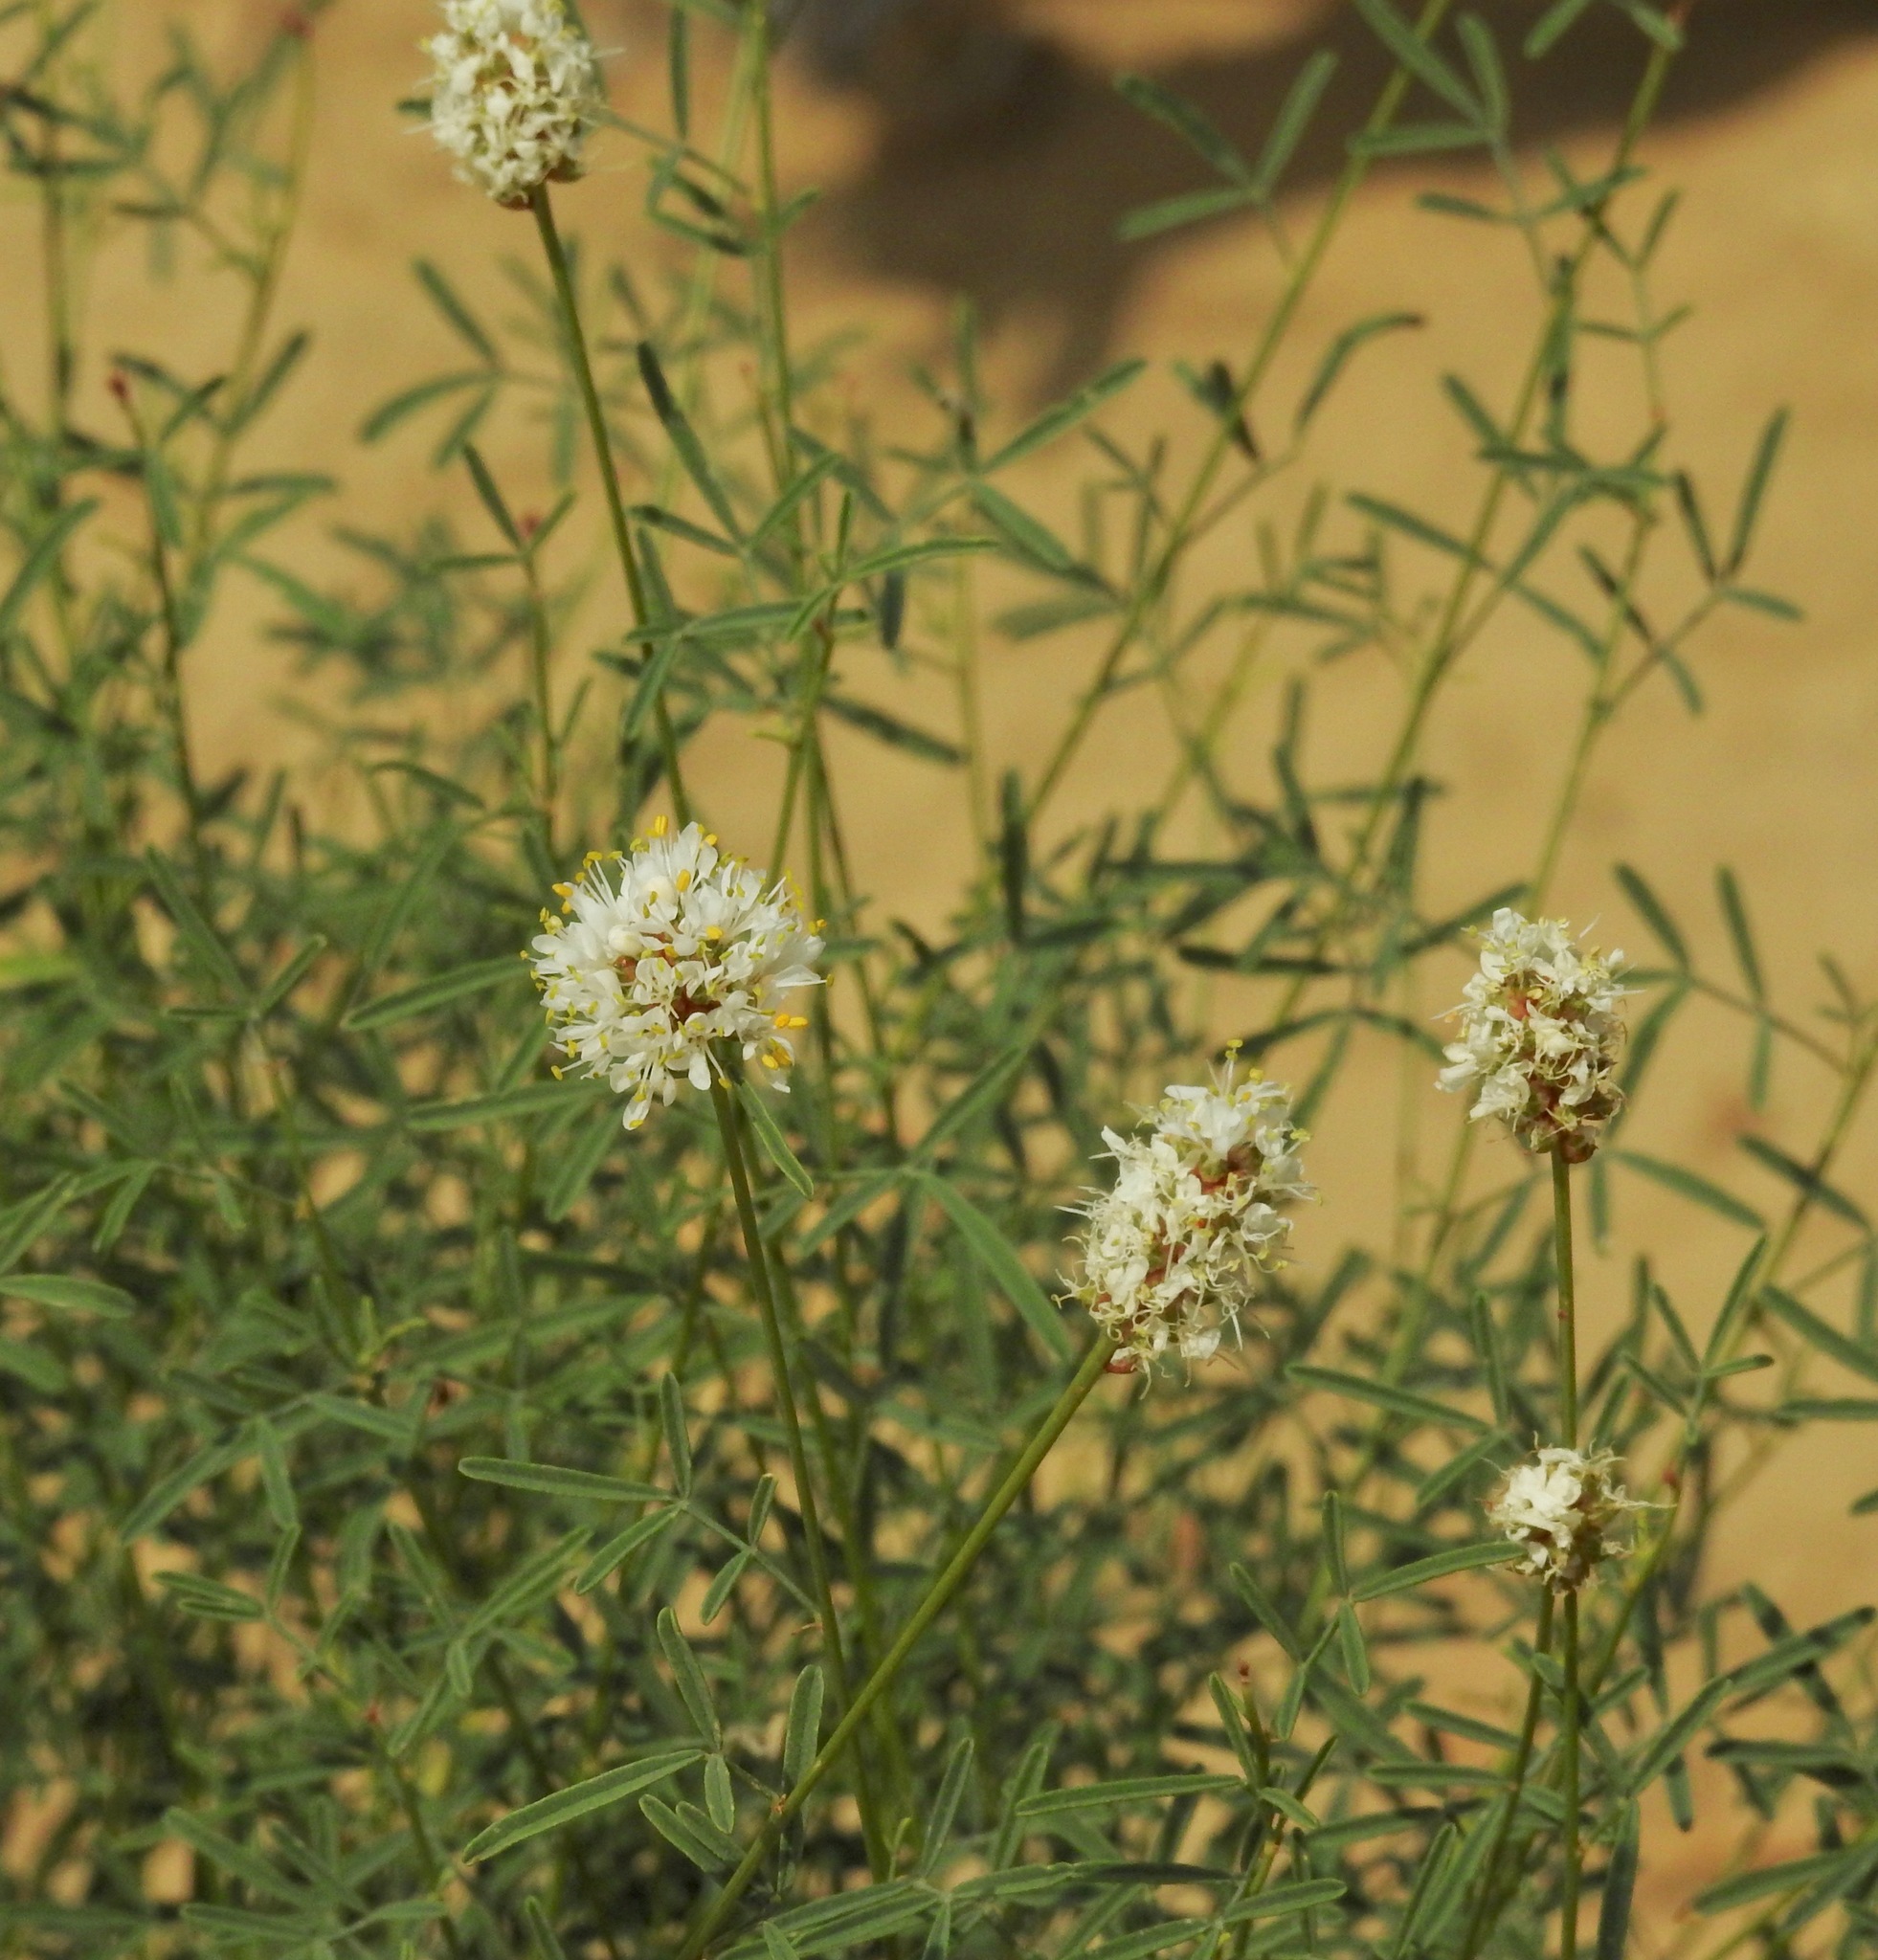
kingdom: Plantae
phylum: Tracheophyta
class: Magnoliopsida
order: Fabales
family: Fabaceae
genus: Dalea
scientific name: Dalea candida
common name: White prairie-clover
